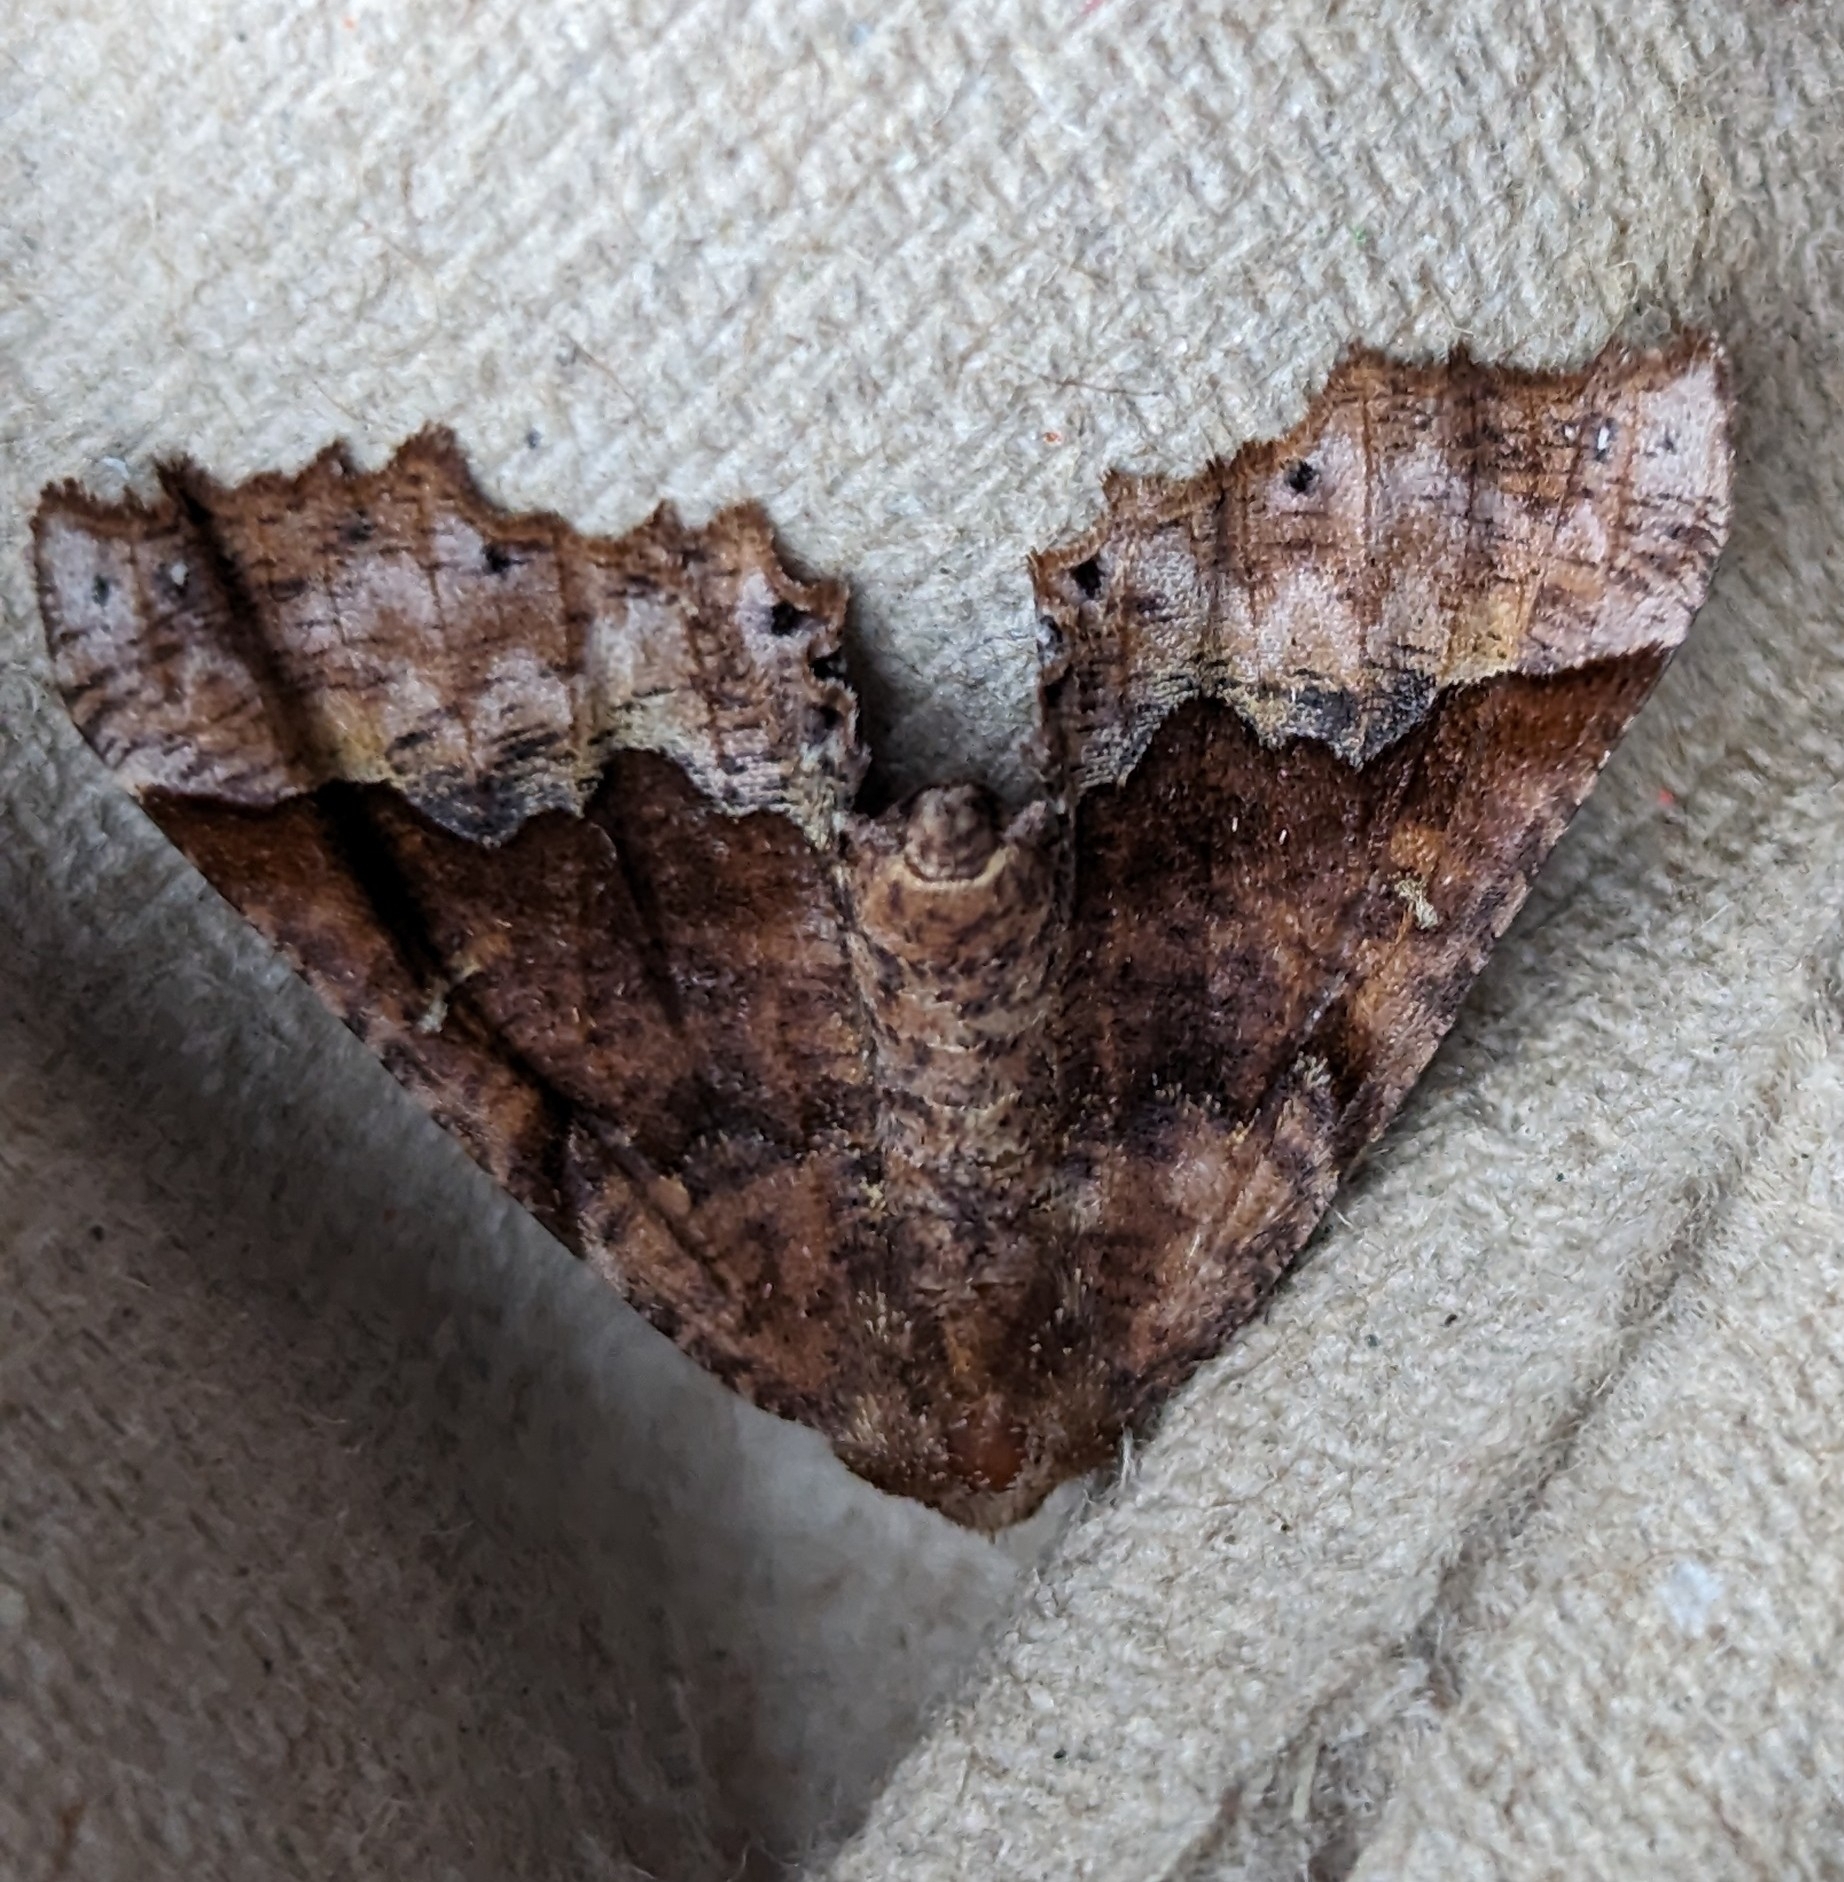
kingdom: Animalia
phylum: Arthropoda
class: Insecta
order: Lepidoptera
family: Geometridae
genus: Pero
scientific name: Pero morrisonaria
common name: Morrison's pero
